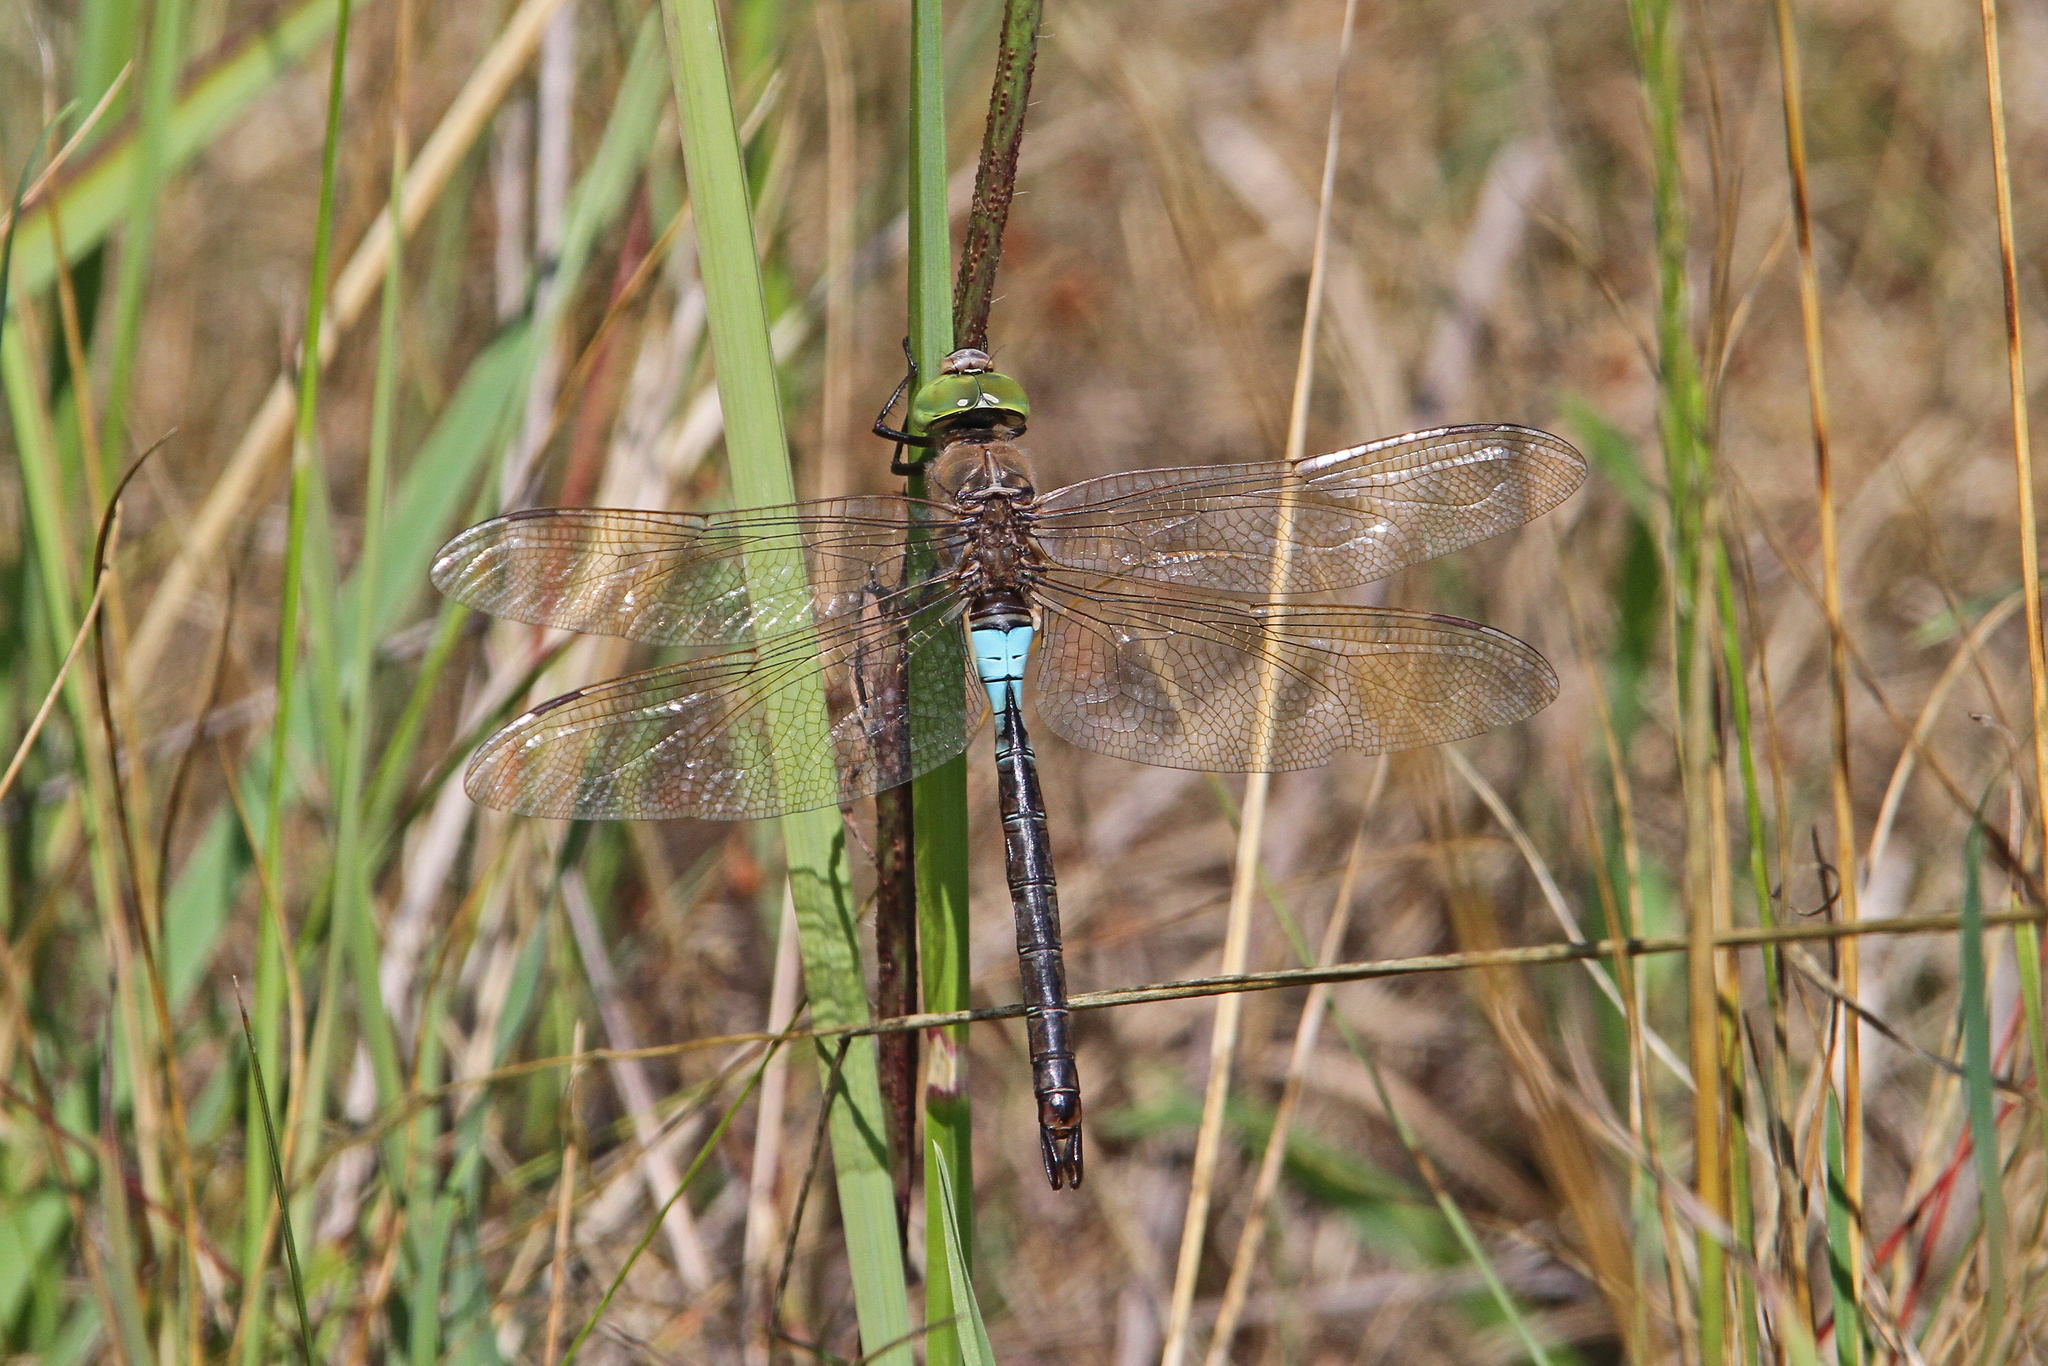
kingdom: Animalia
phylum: Arthropoda
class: Insecta
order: Odonata
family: Aeshnidae
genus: Anax
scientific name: Anax parthenope
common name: Lesser emperor
